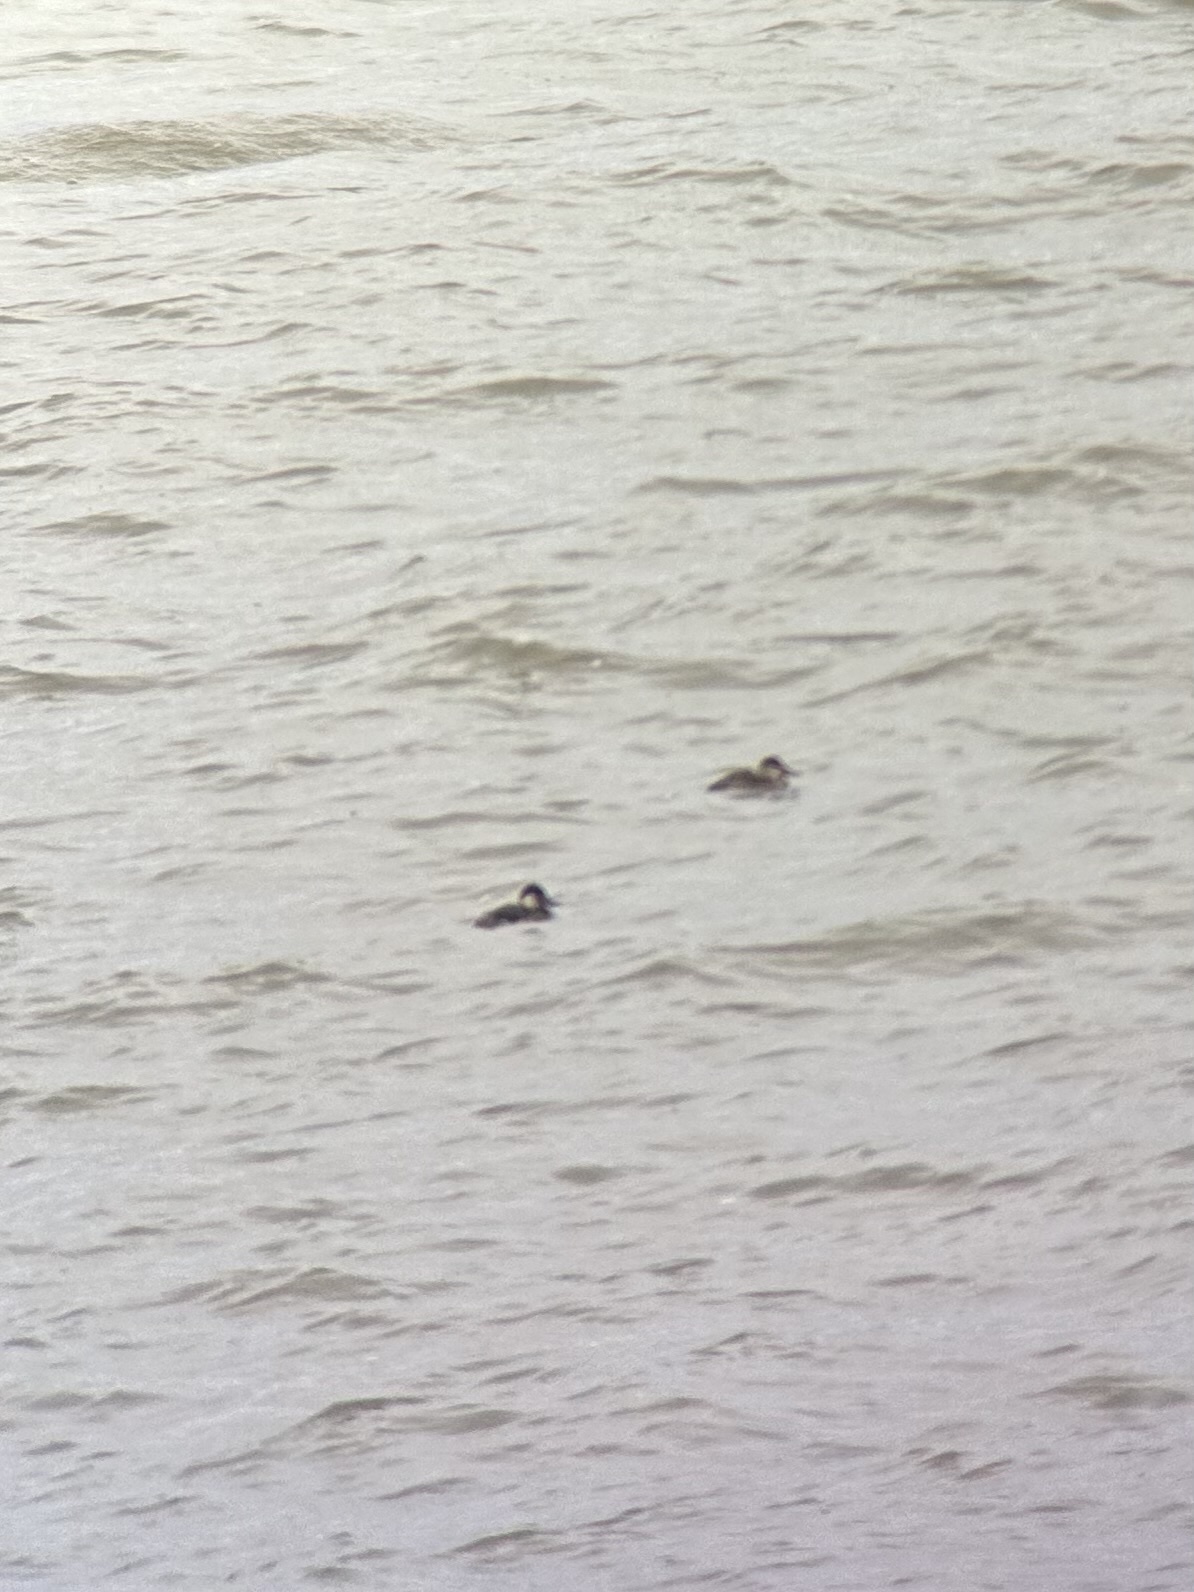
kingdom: Animalia
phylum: Chordata
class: Aves
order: Anseriformes
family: Anatidae
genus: Oxyura
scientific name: Oxyura jamaicensis
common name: Ruddy duck
